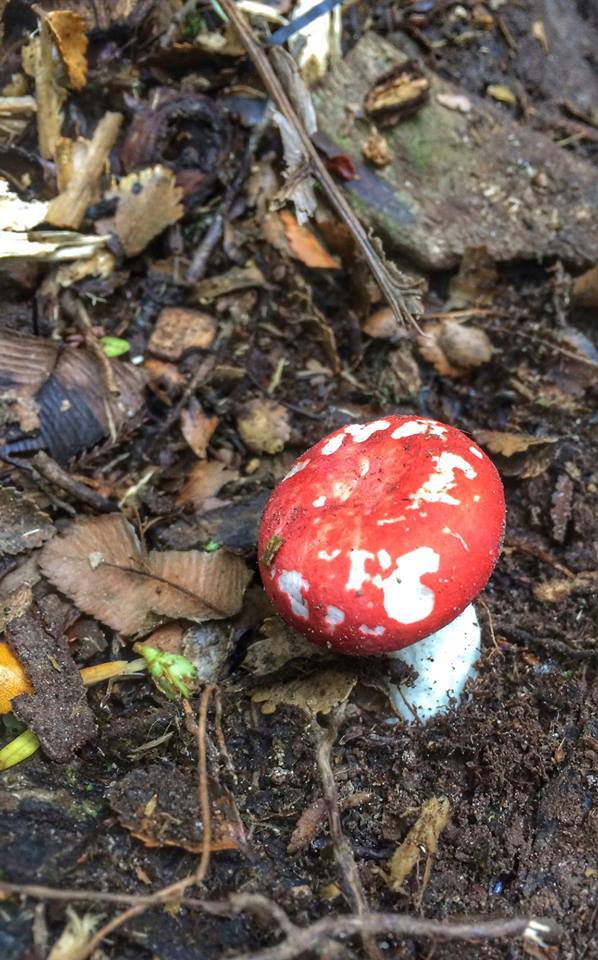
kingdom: Fungi
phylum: Basidiomycota
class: Agaricomycetes
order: Russulales
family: Russulaceae
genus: Russula
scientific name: Russula kermesina
